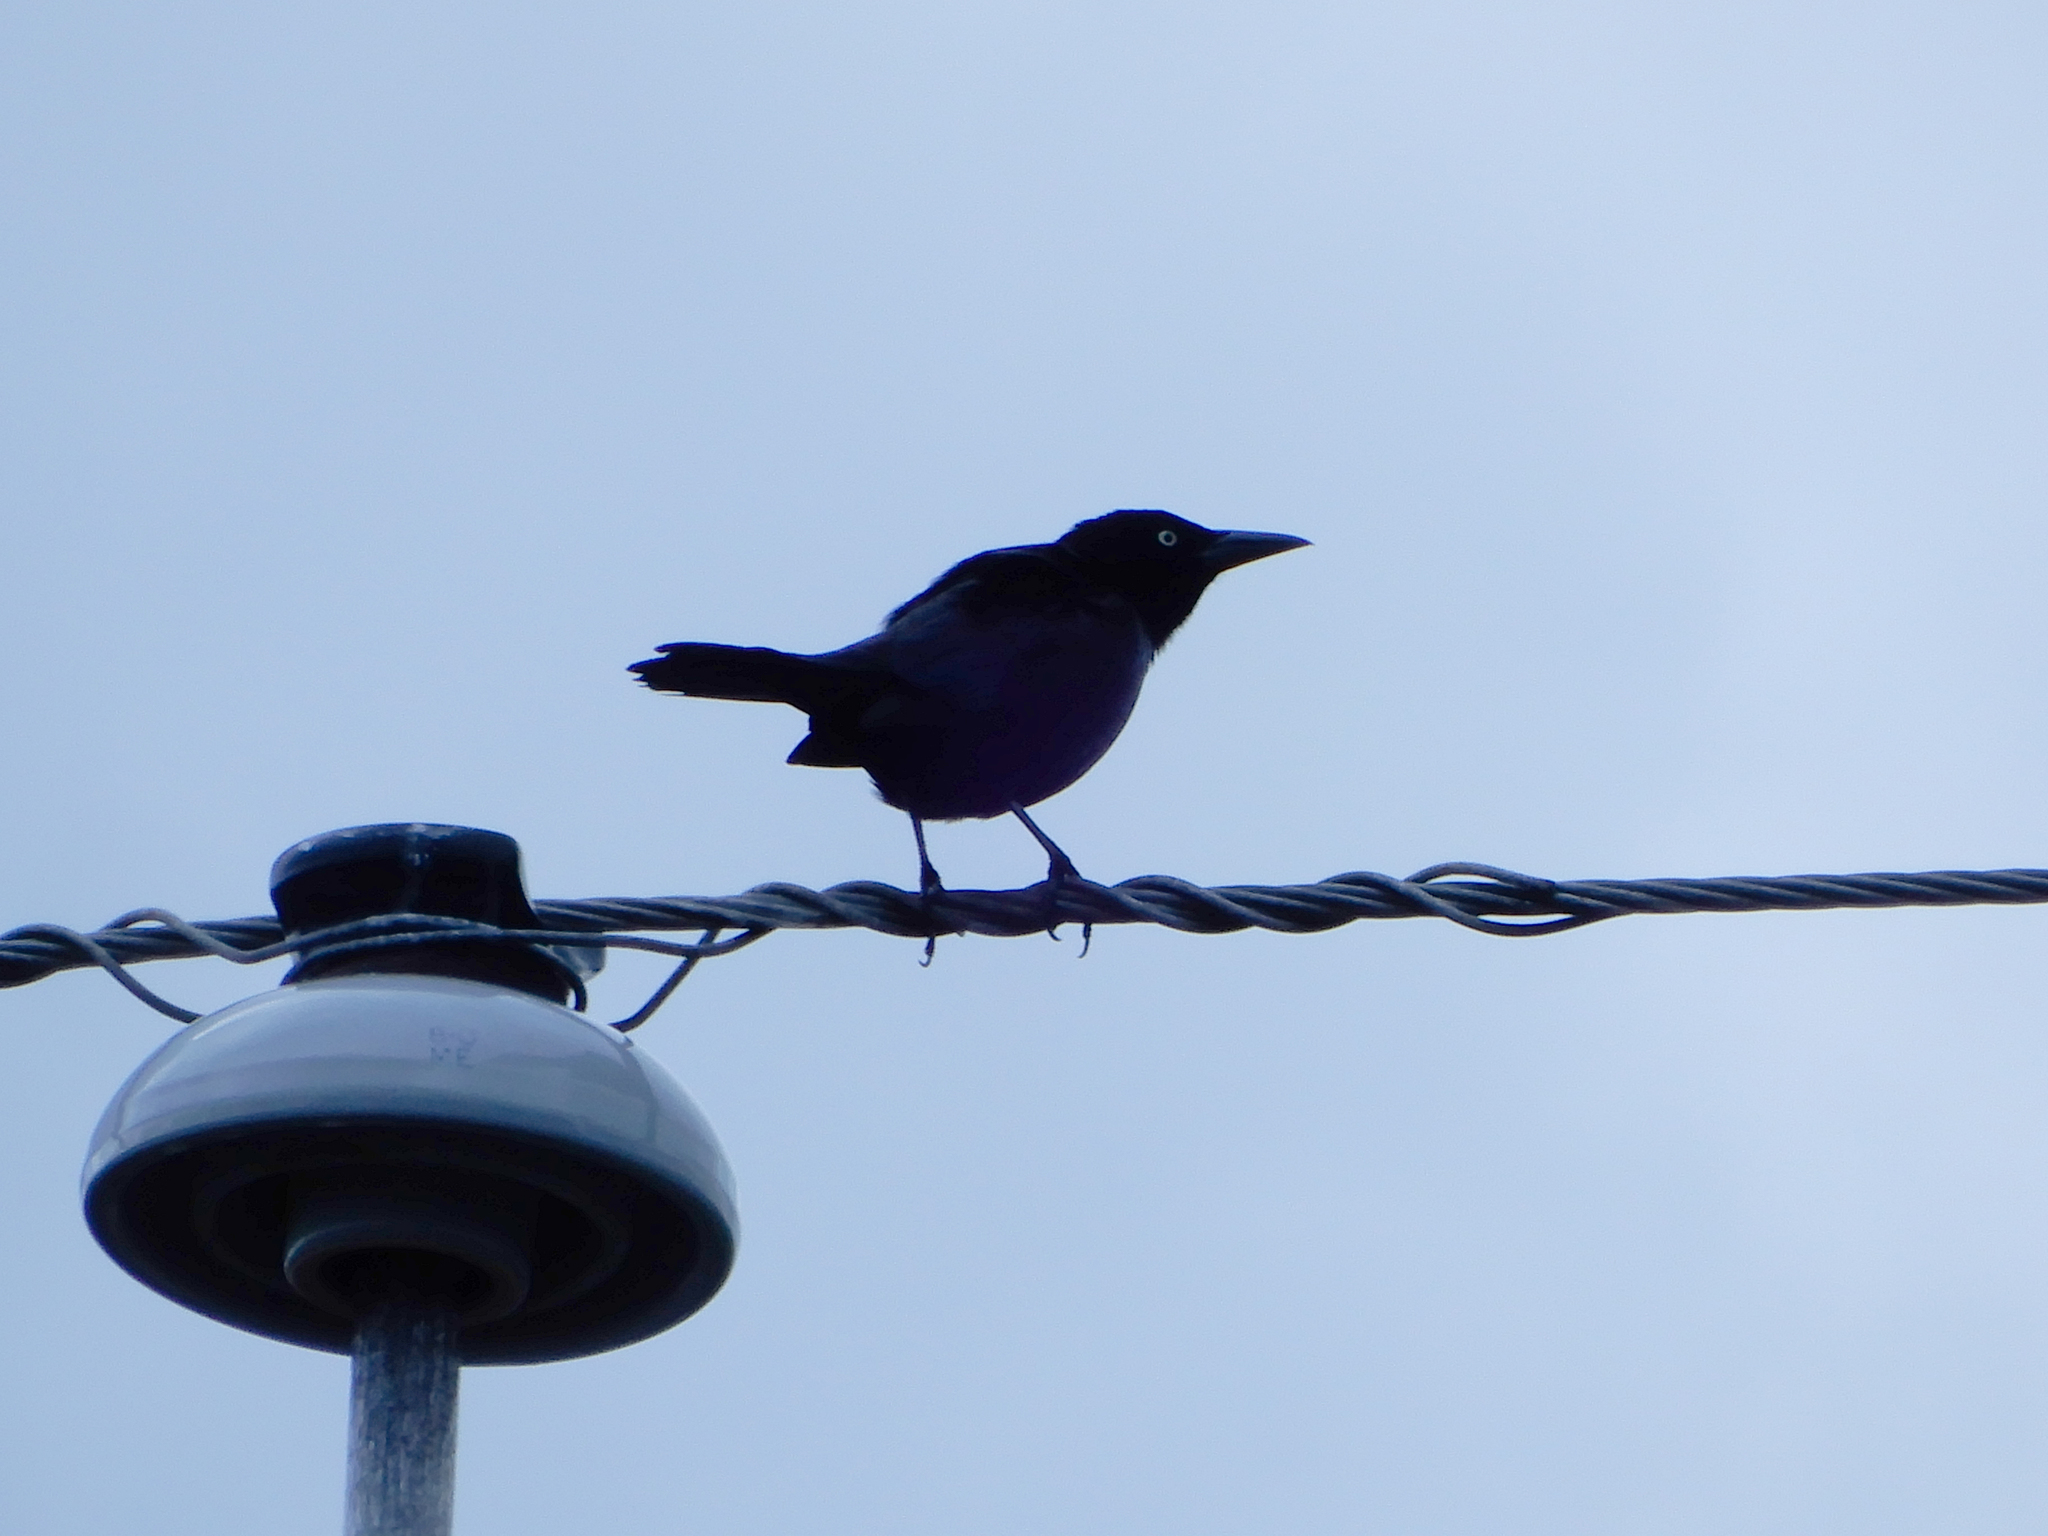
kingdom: Animalia
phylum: Chordata
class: Aves
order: Passeriformes
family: Icteridae
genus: Quiscalus
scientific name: Quiscalus quiscula
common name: Common grackle
